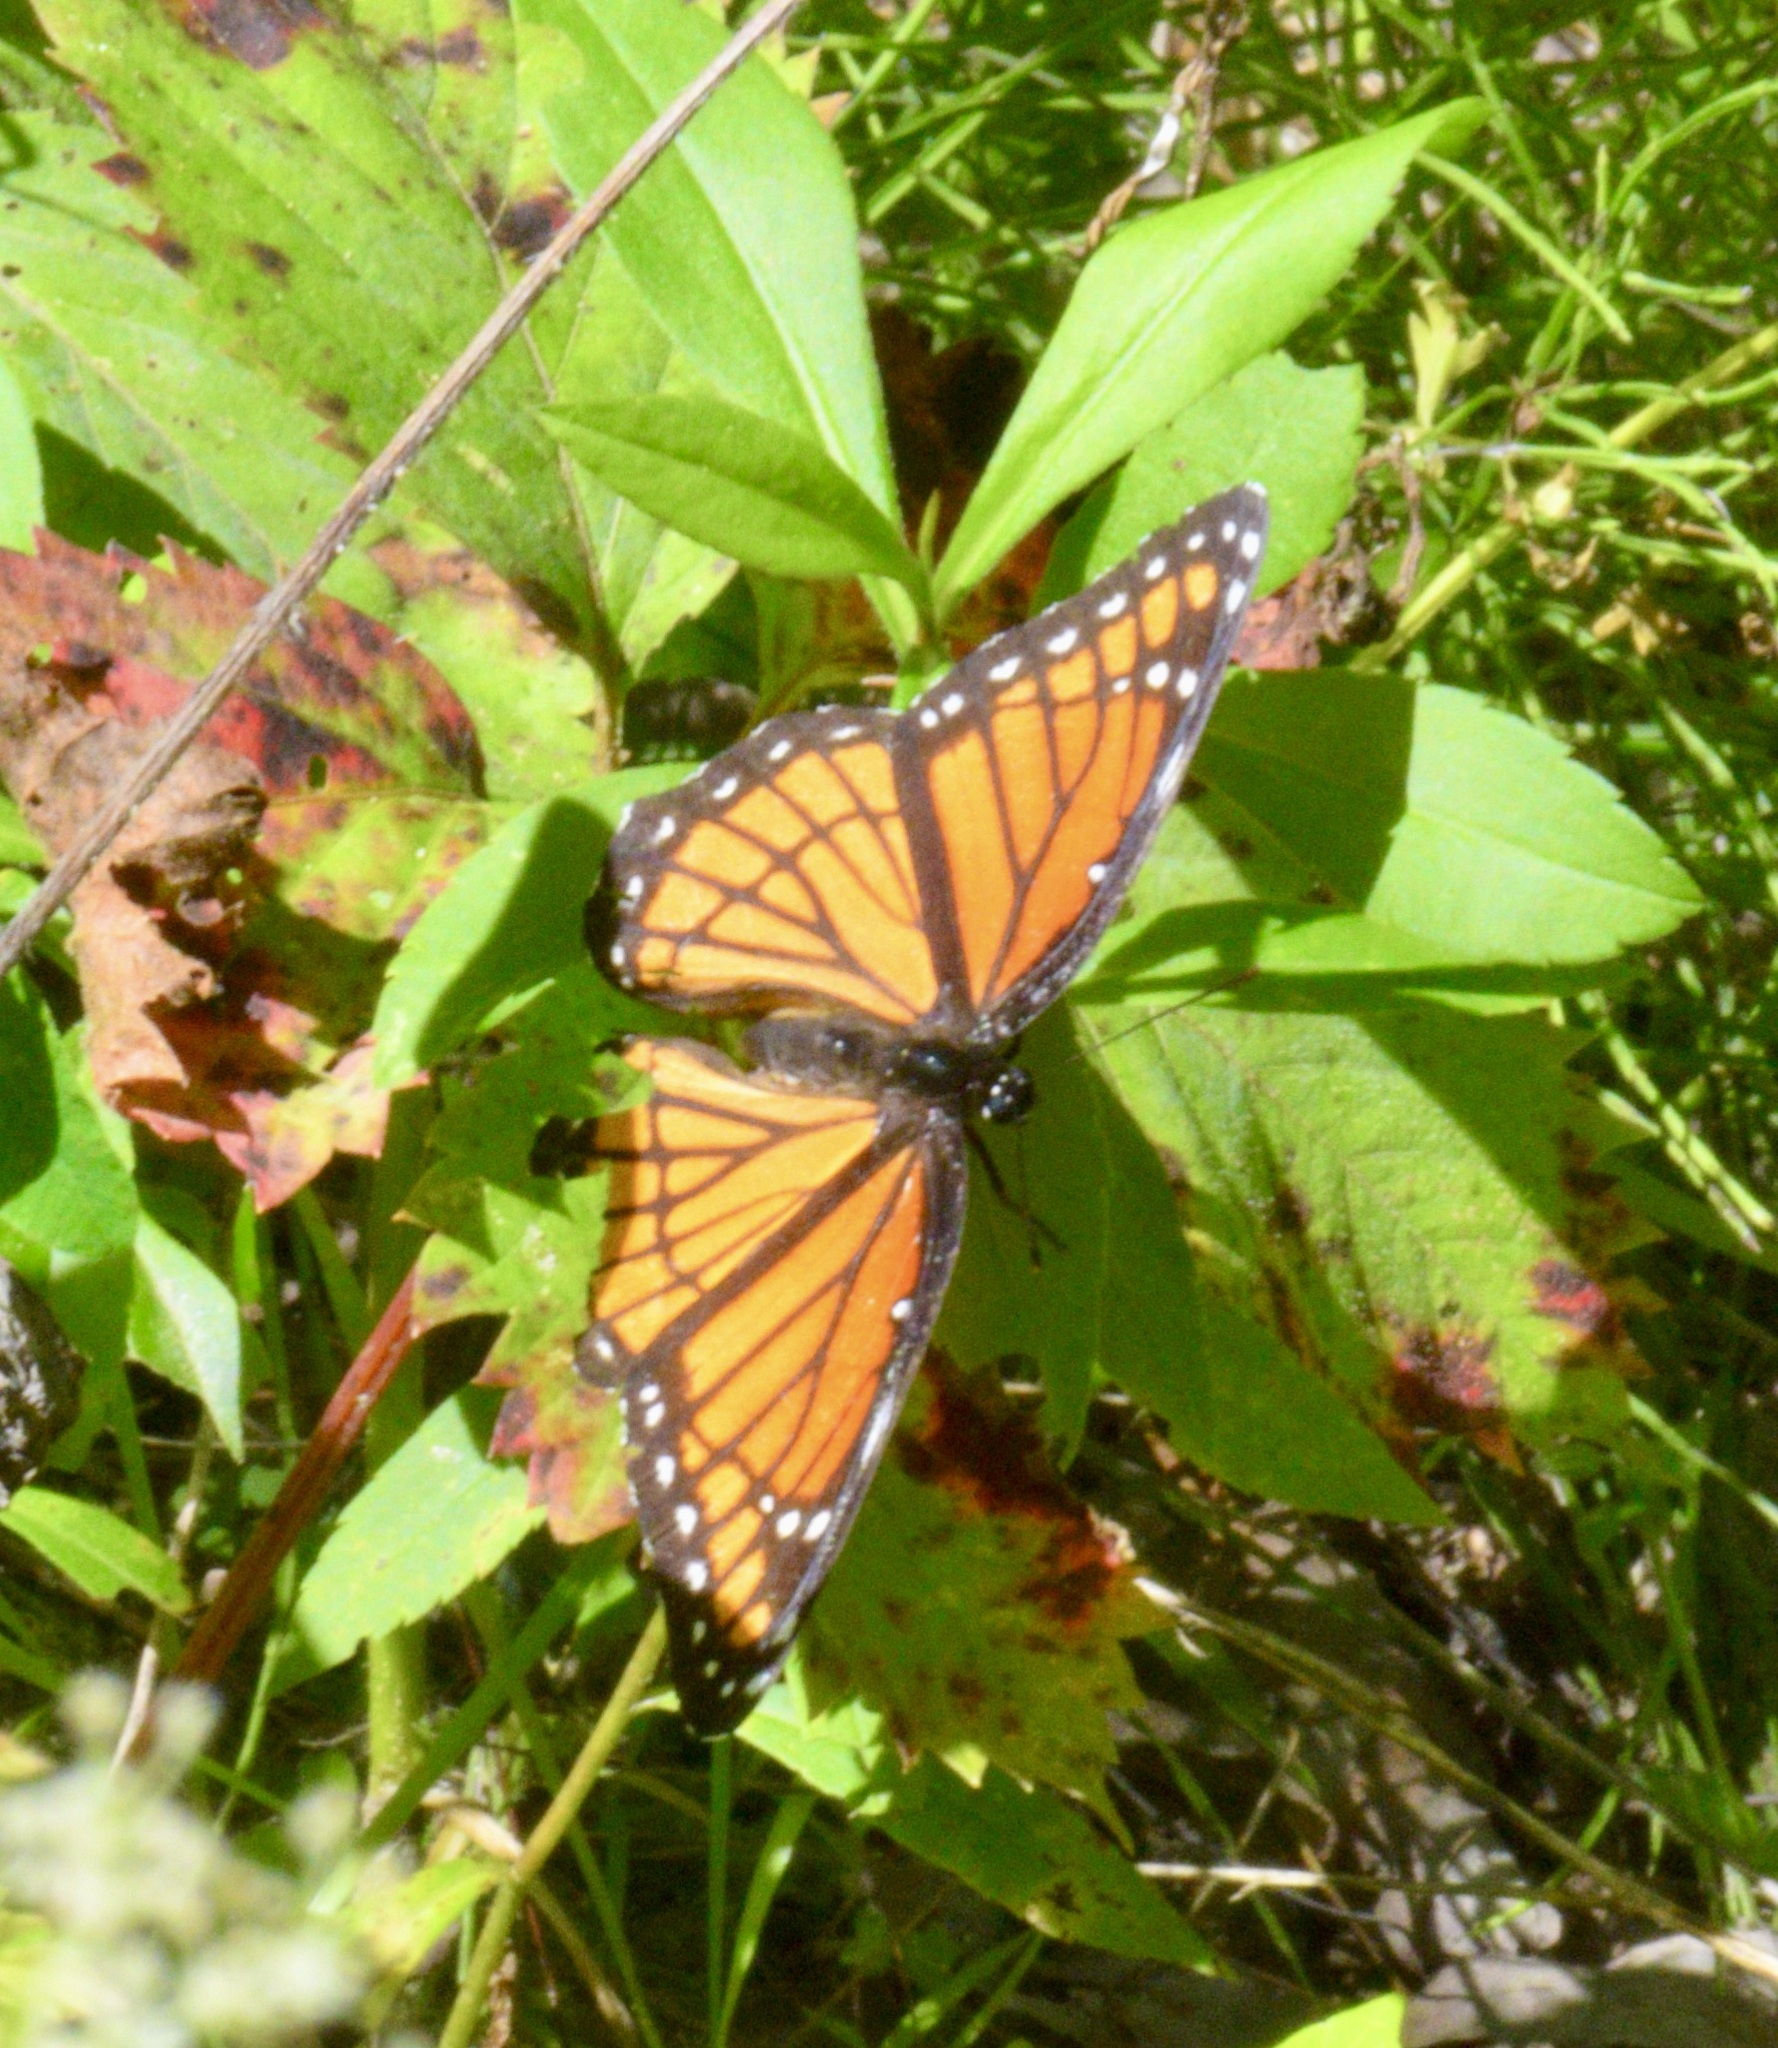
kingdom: Animalia
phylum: Arthropoda
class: Insecta
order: Lepidoptera
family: Nymphalidae
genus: Limenitis
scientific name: Limenitis archippus
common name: Viceroy
